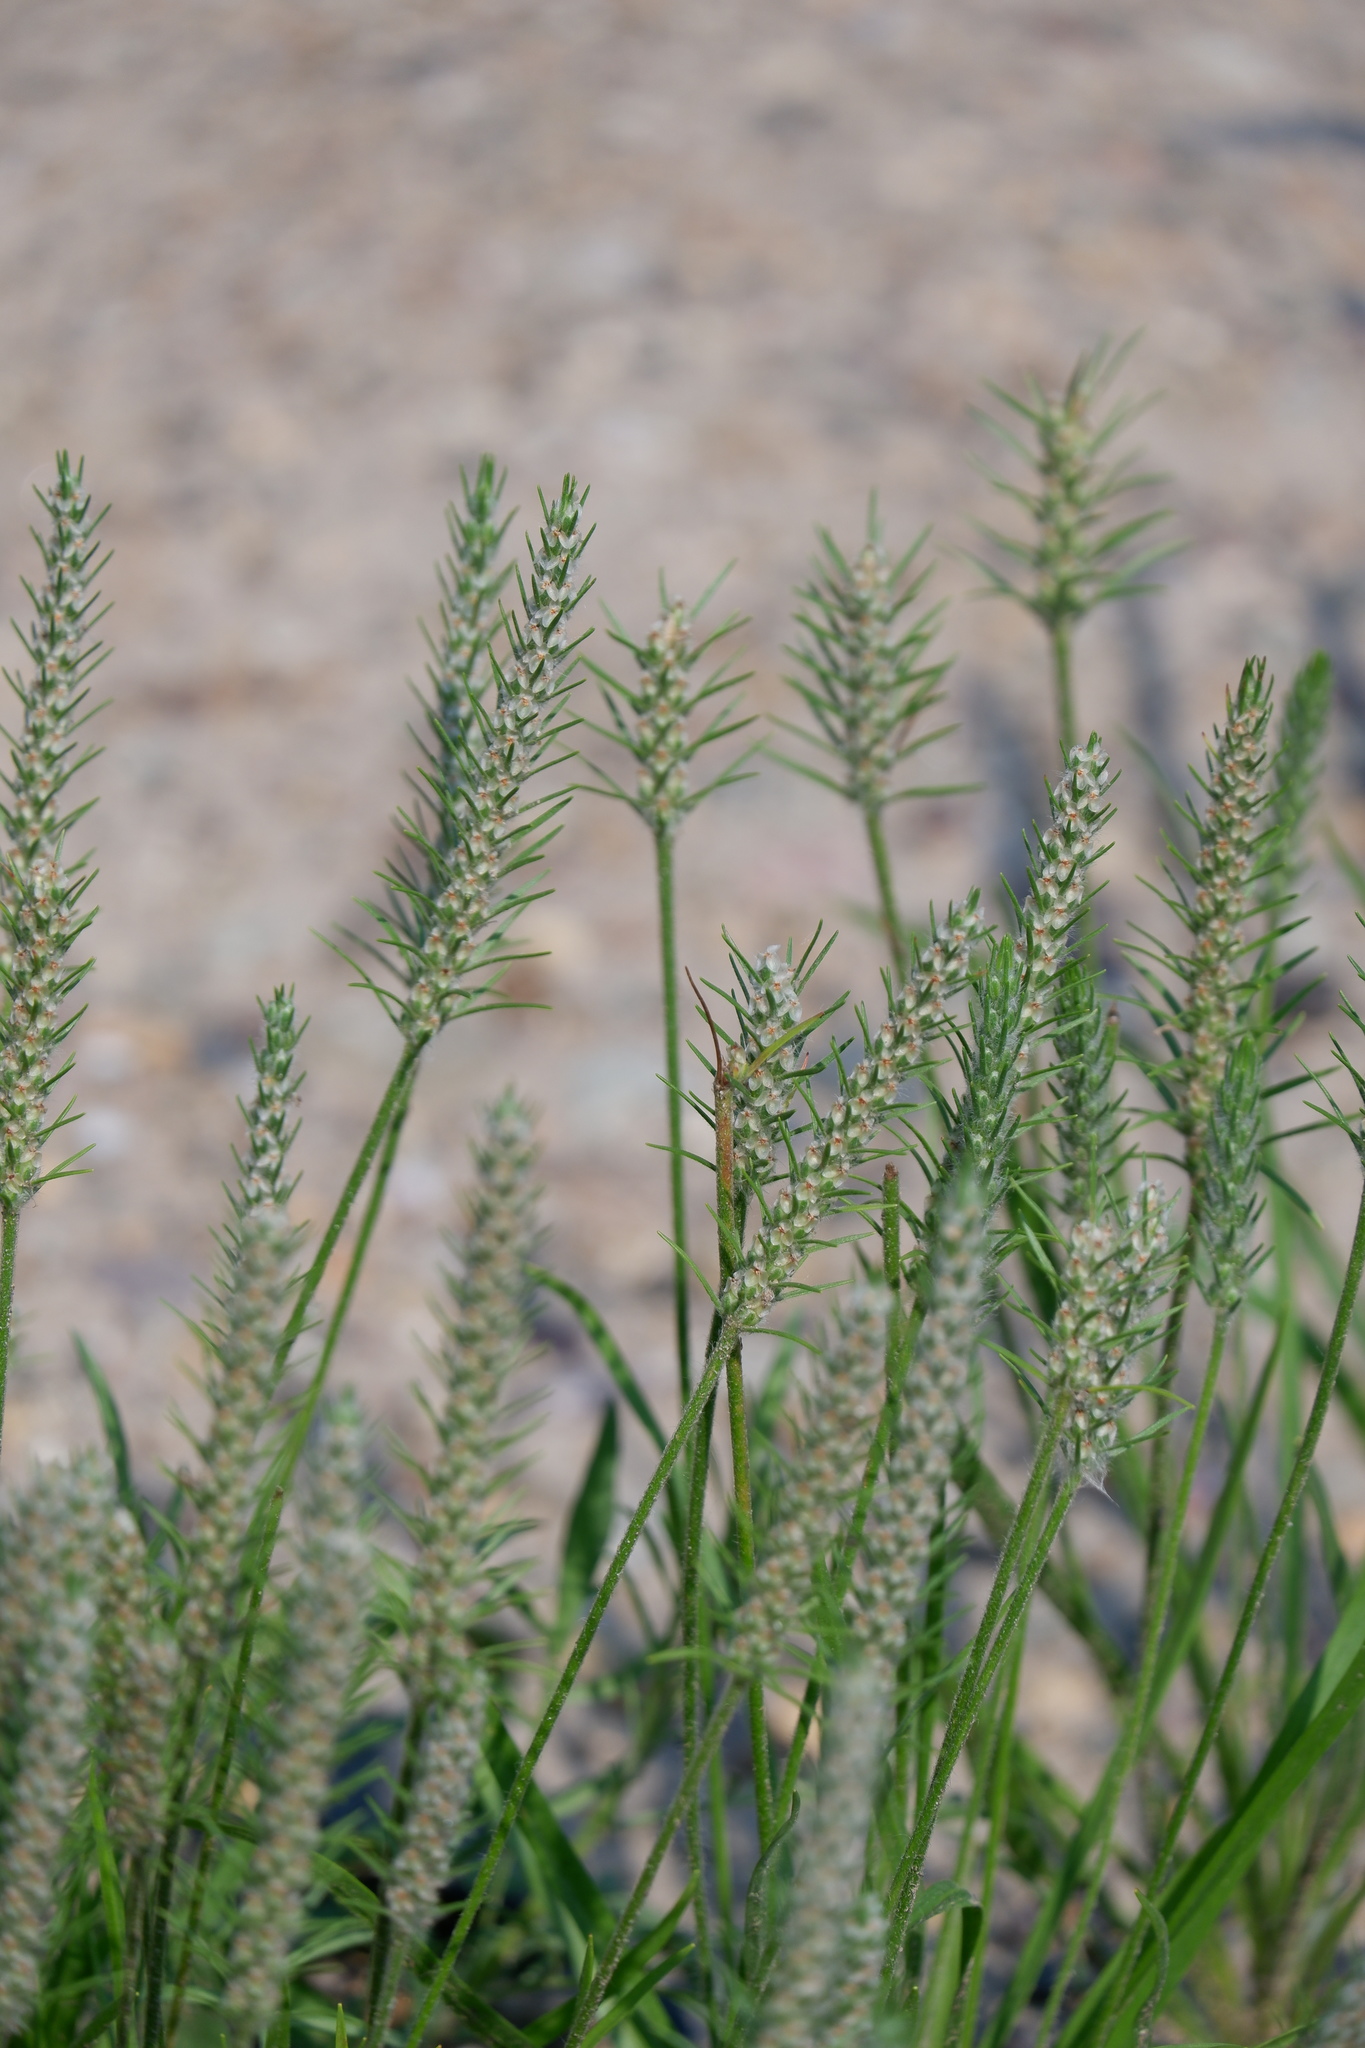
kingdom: Plantae
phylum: Tracheophyta
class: Magnoliopsida
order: Lamiales
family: Plantaginaceae
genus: Plantago
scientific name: Plantago aristata
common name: Bracted plantain
